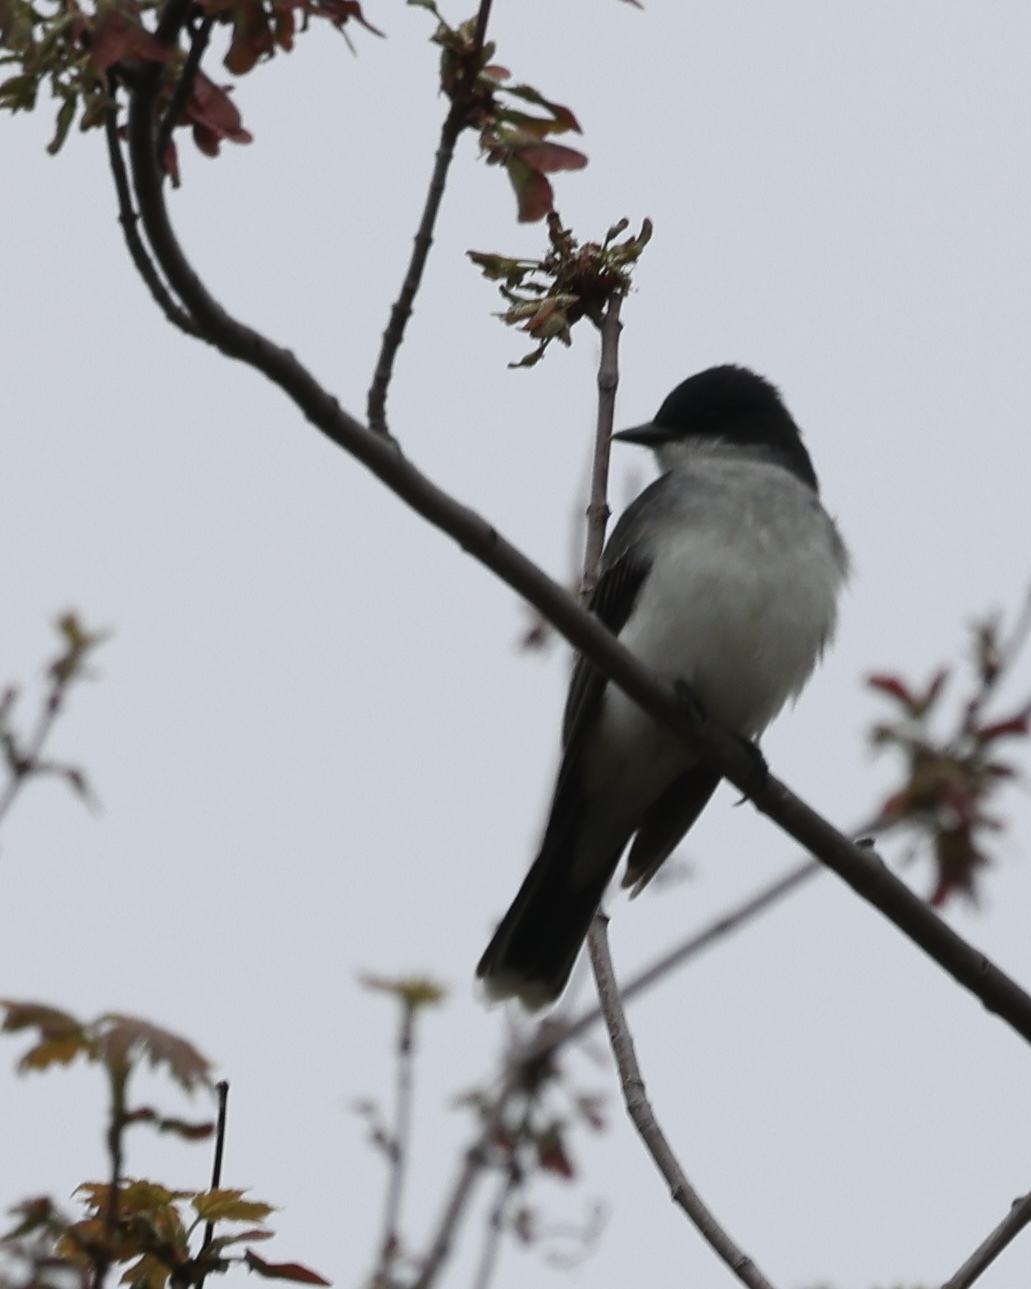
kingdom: Animalia
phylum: Chordata
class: Aves
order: Passeriformes
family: Tyrannidae
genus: Tyrannus
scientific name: Tyrannus tyrannus
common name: Eastern kingbird
